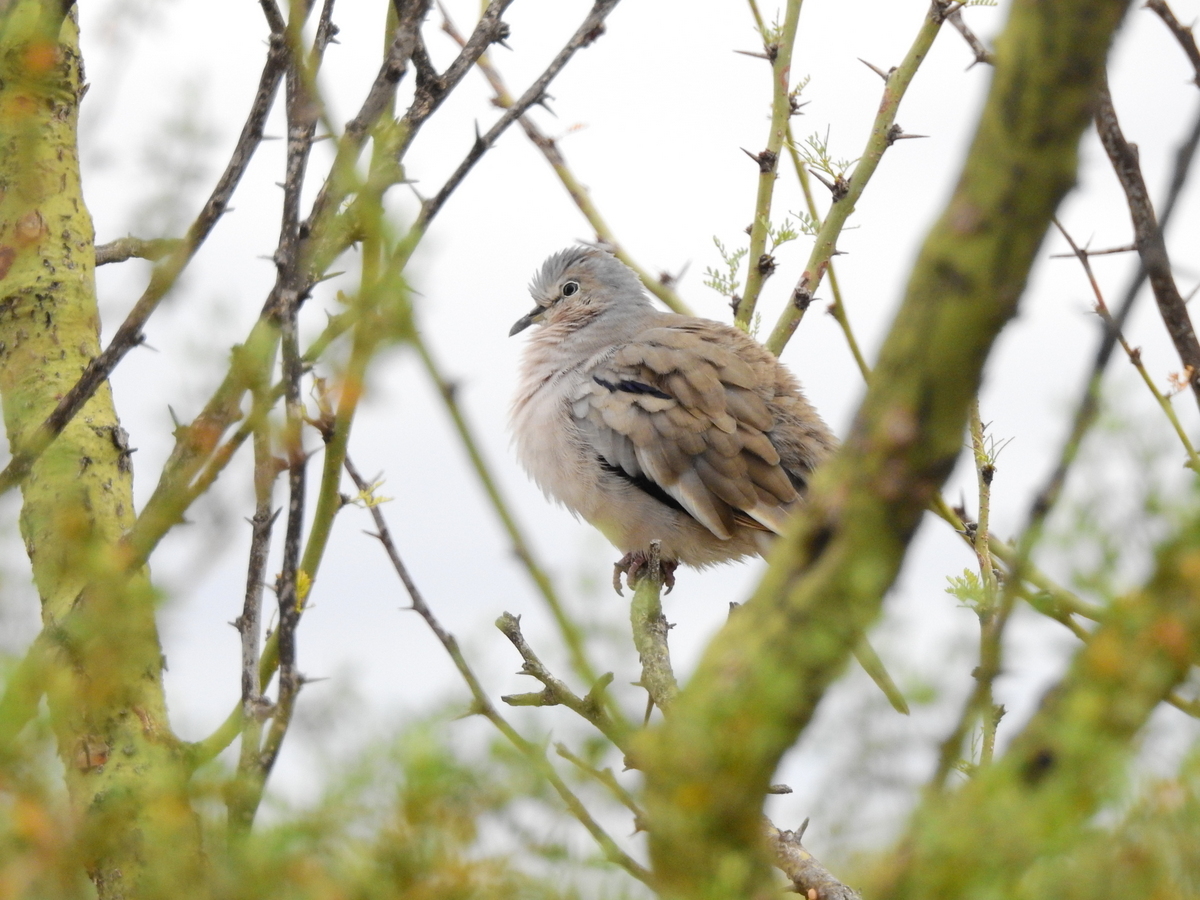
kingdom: Animalia
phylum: Chordata
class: Aves
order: Columbiformes
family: Columbidae
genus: Columbina
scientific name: Columbina picui
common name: Picui ground dove
